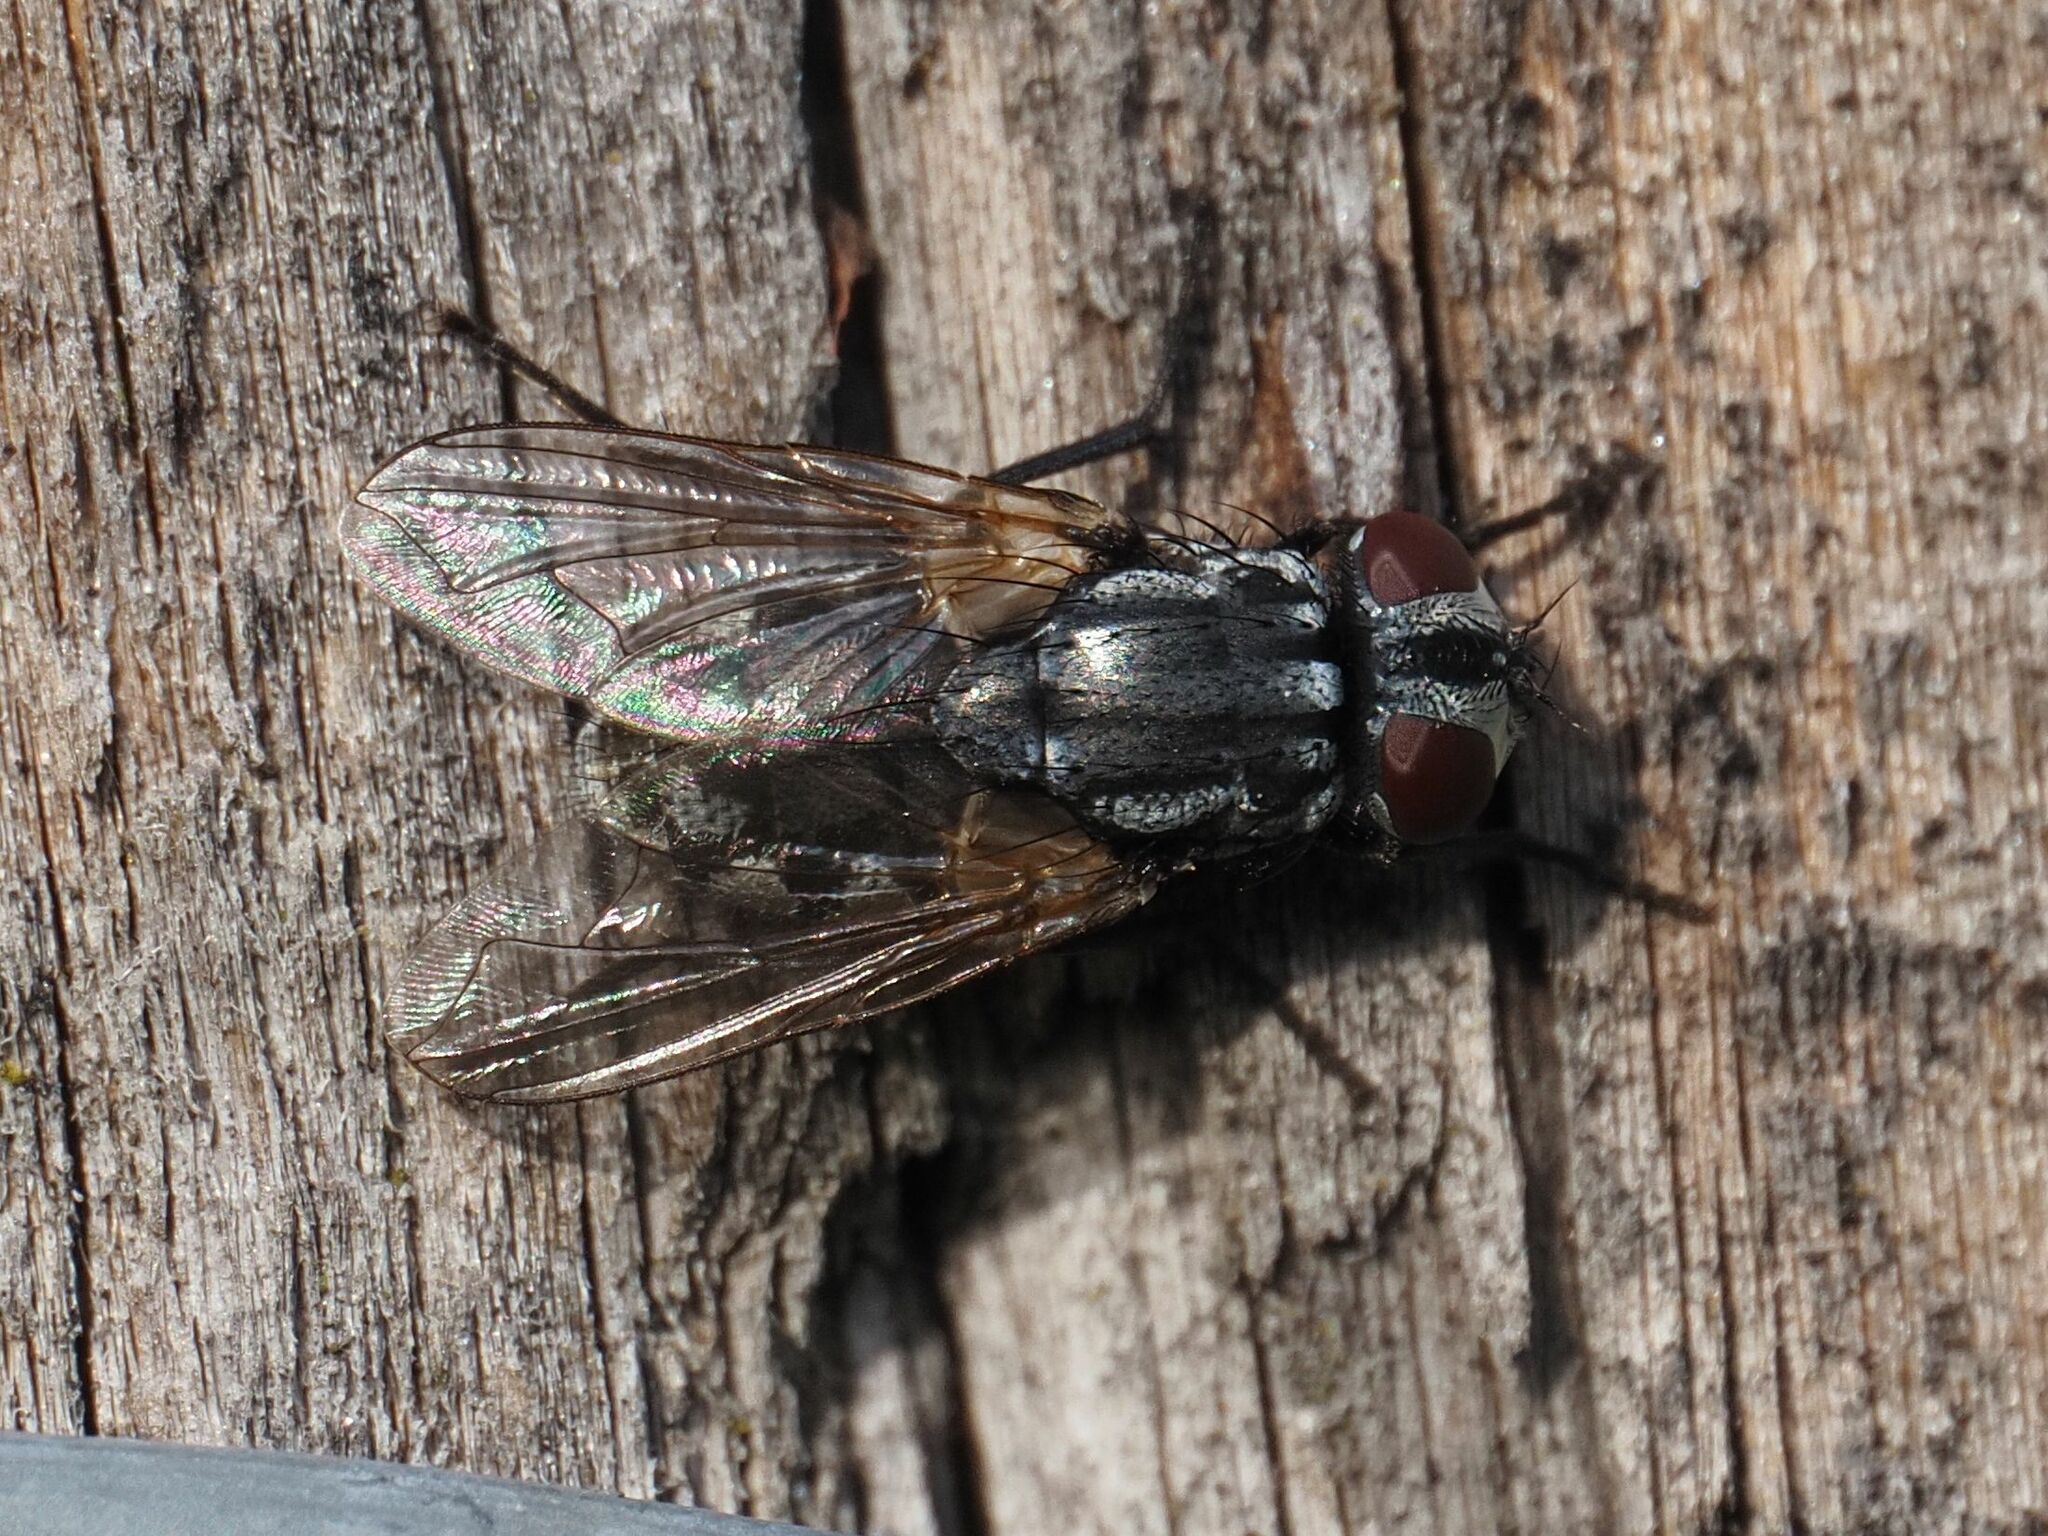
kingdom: Animalia
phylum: Arthropoda
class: Insecta
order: Diptera
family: Muscidae
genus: Musca
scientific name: Musca autumnalis
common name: Face fly
